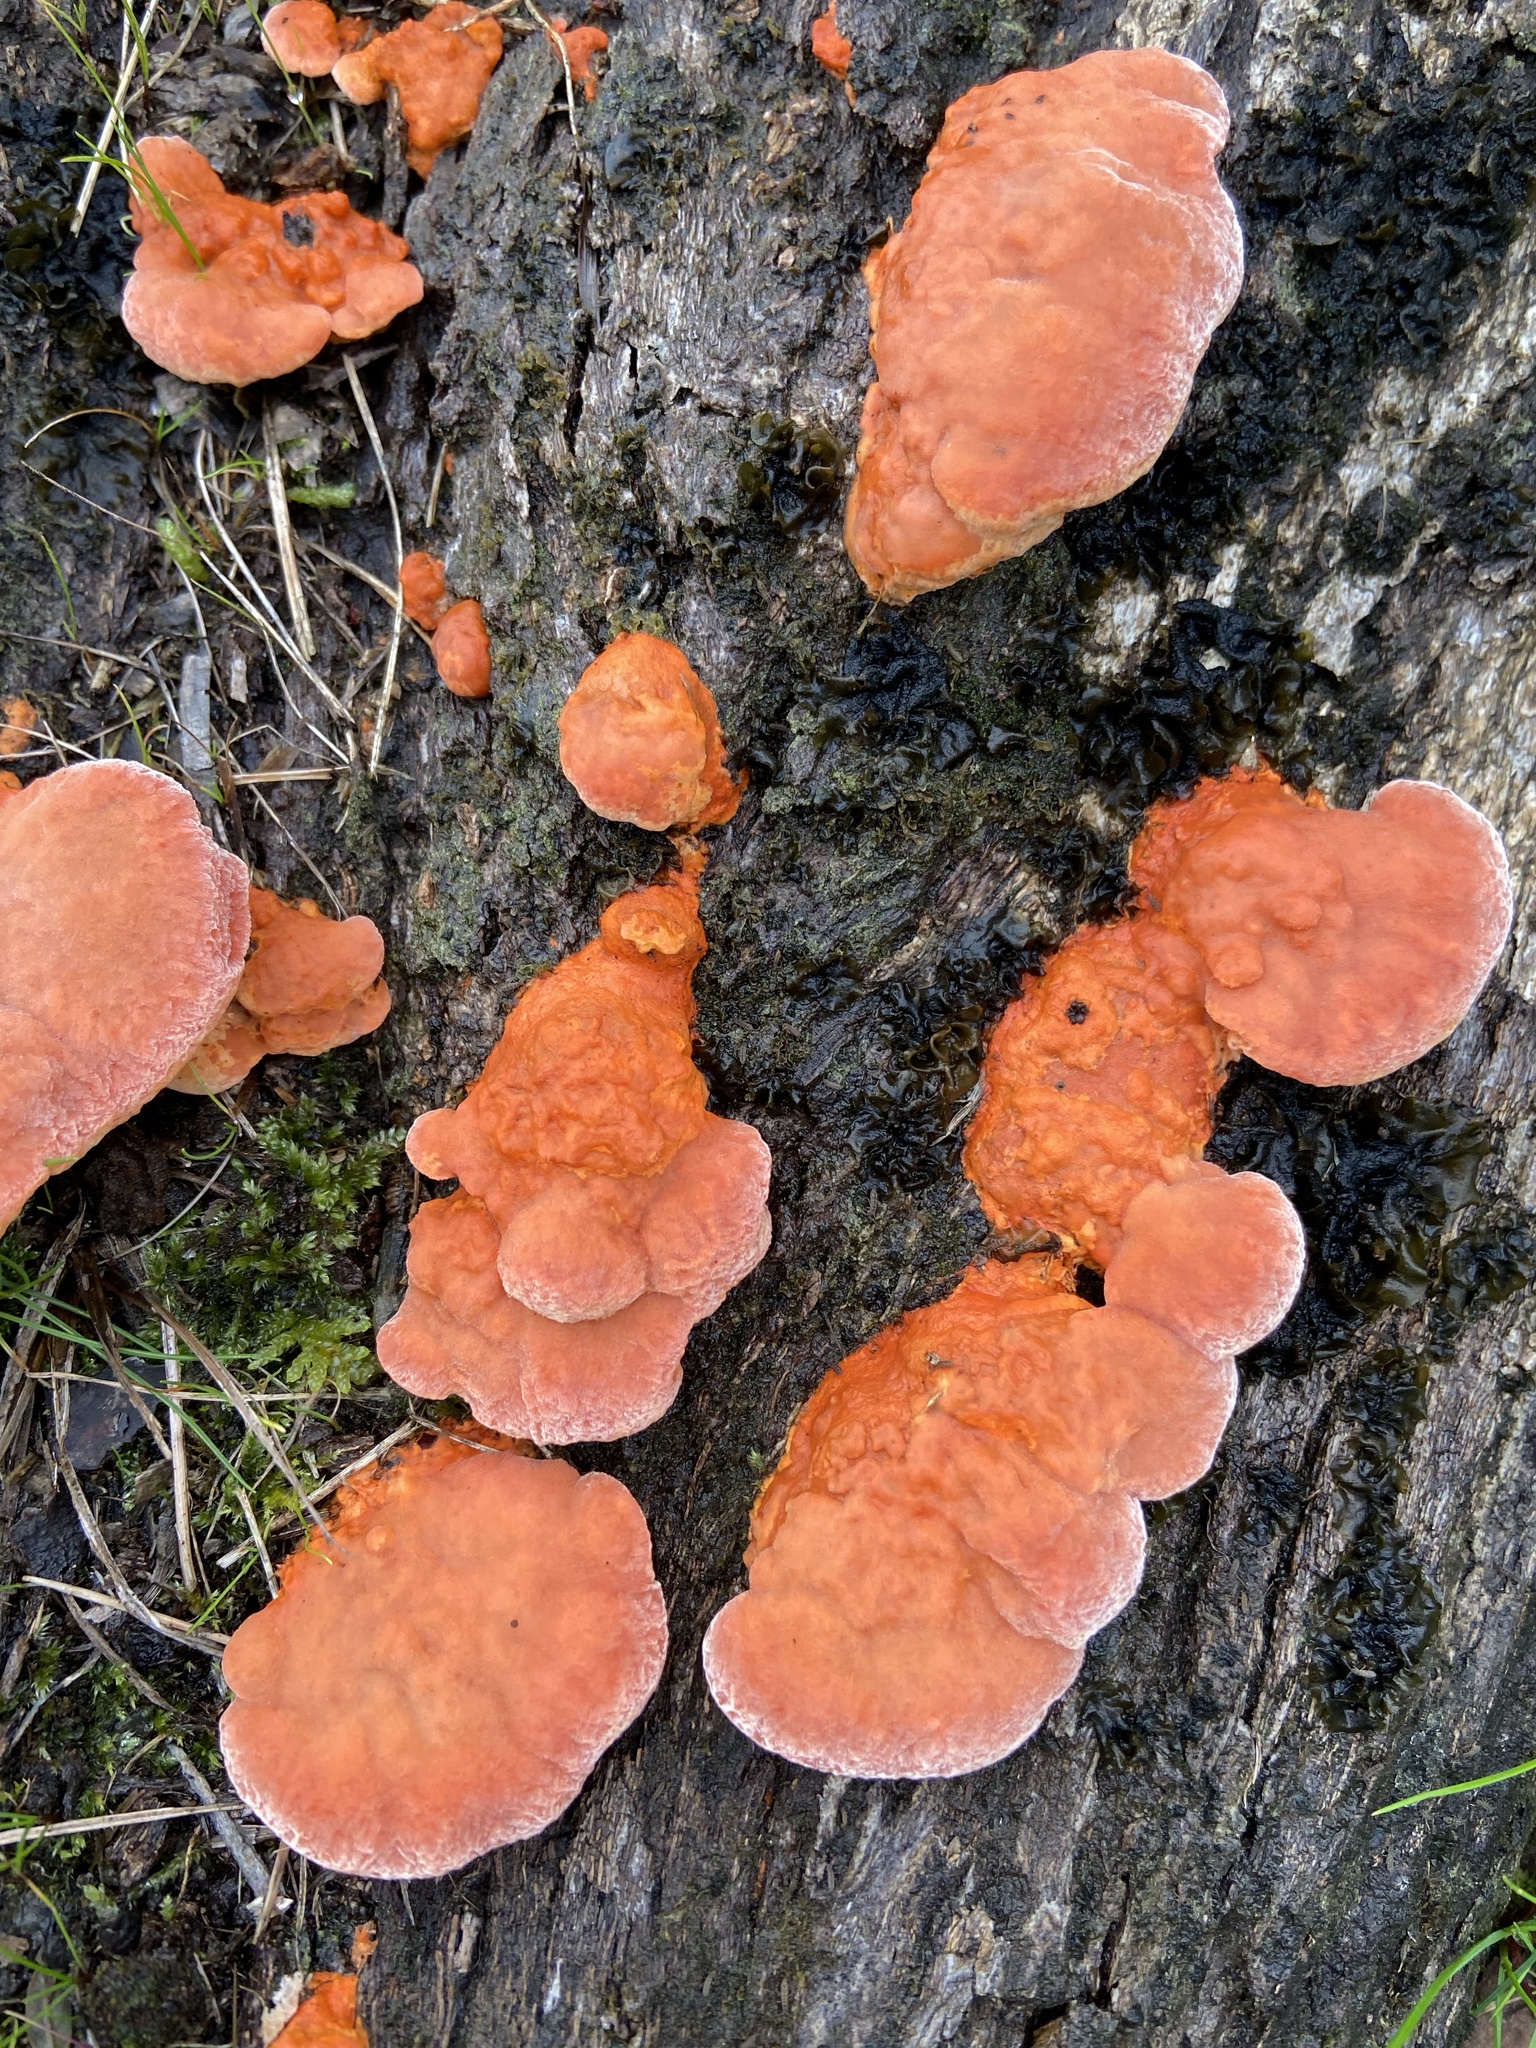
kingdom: Fungi
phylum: Basidiomycota
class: Agaricomycetes
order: Polyporales
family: Polyporaceae
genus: Trametes
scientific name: Trametes coccinea
